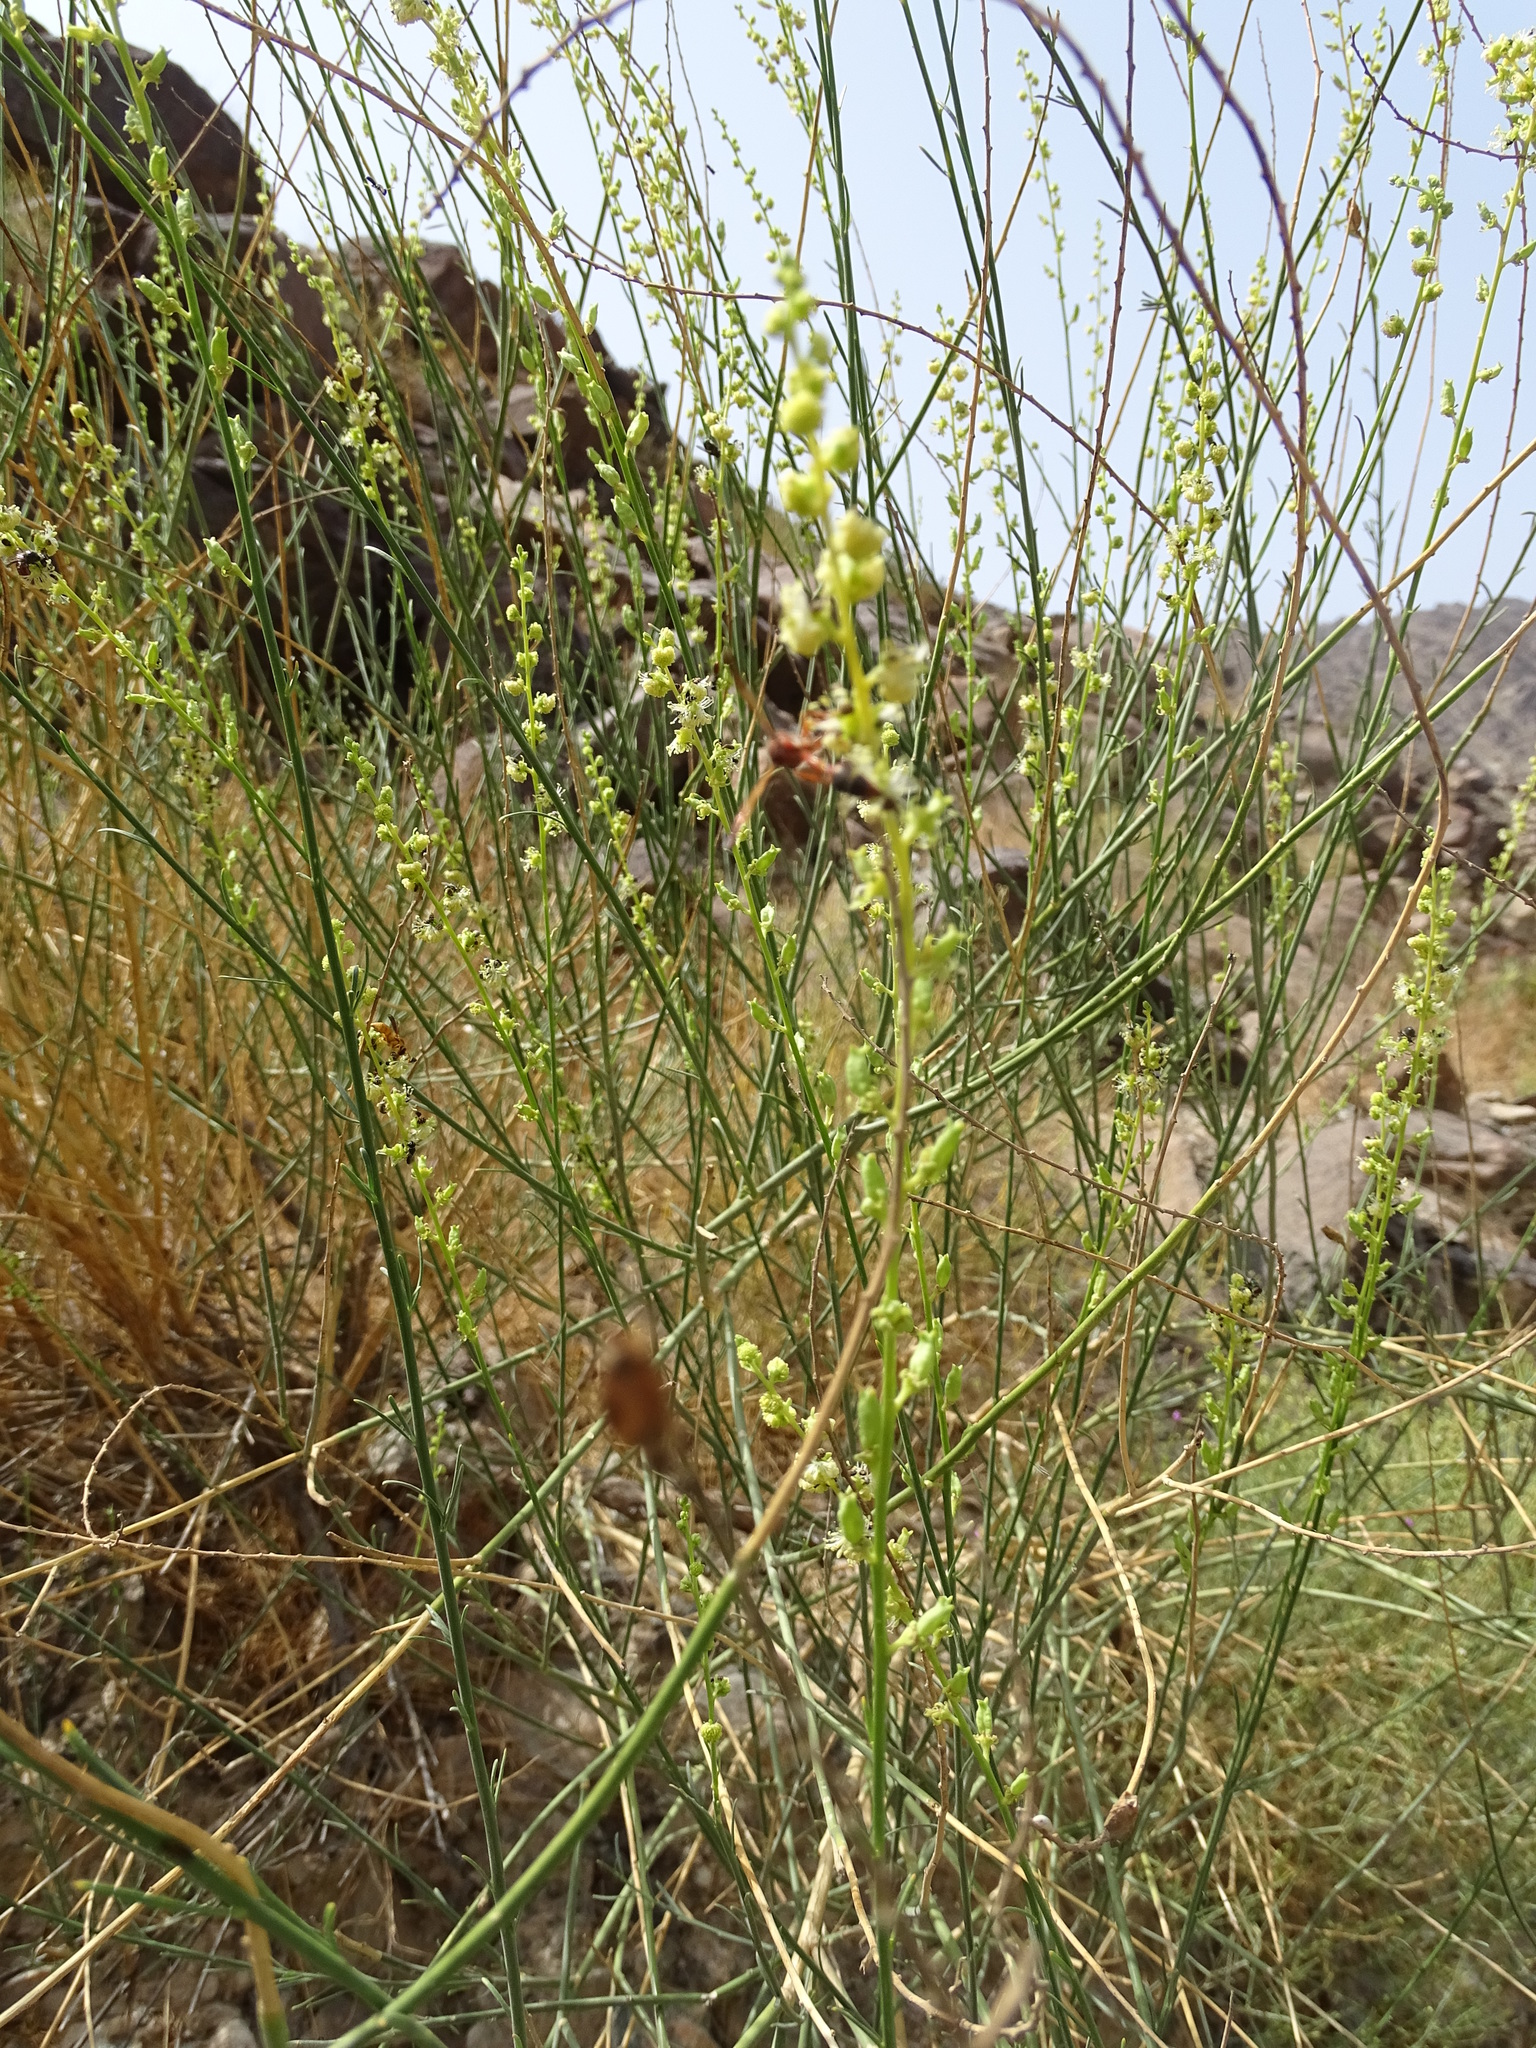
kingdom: Plantae
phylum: Tracheophyta
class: Magnoliopsida
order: Brassicales
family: Resedaceae
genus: Ochradiscus
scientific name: Ochradiscus aucheri
